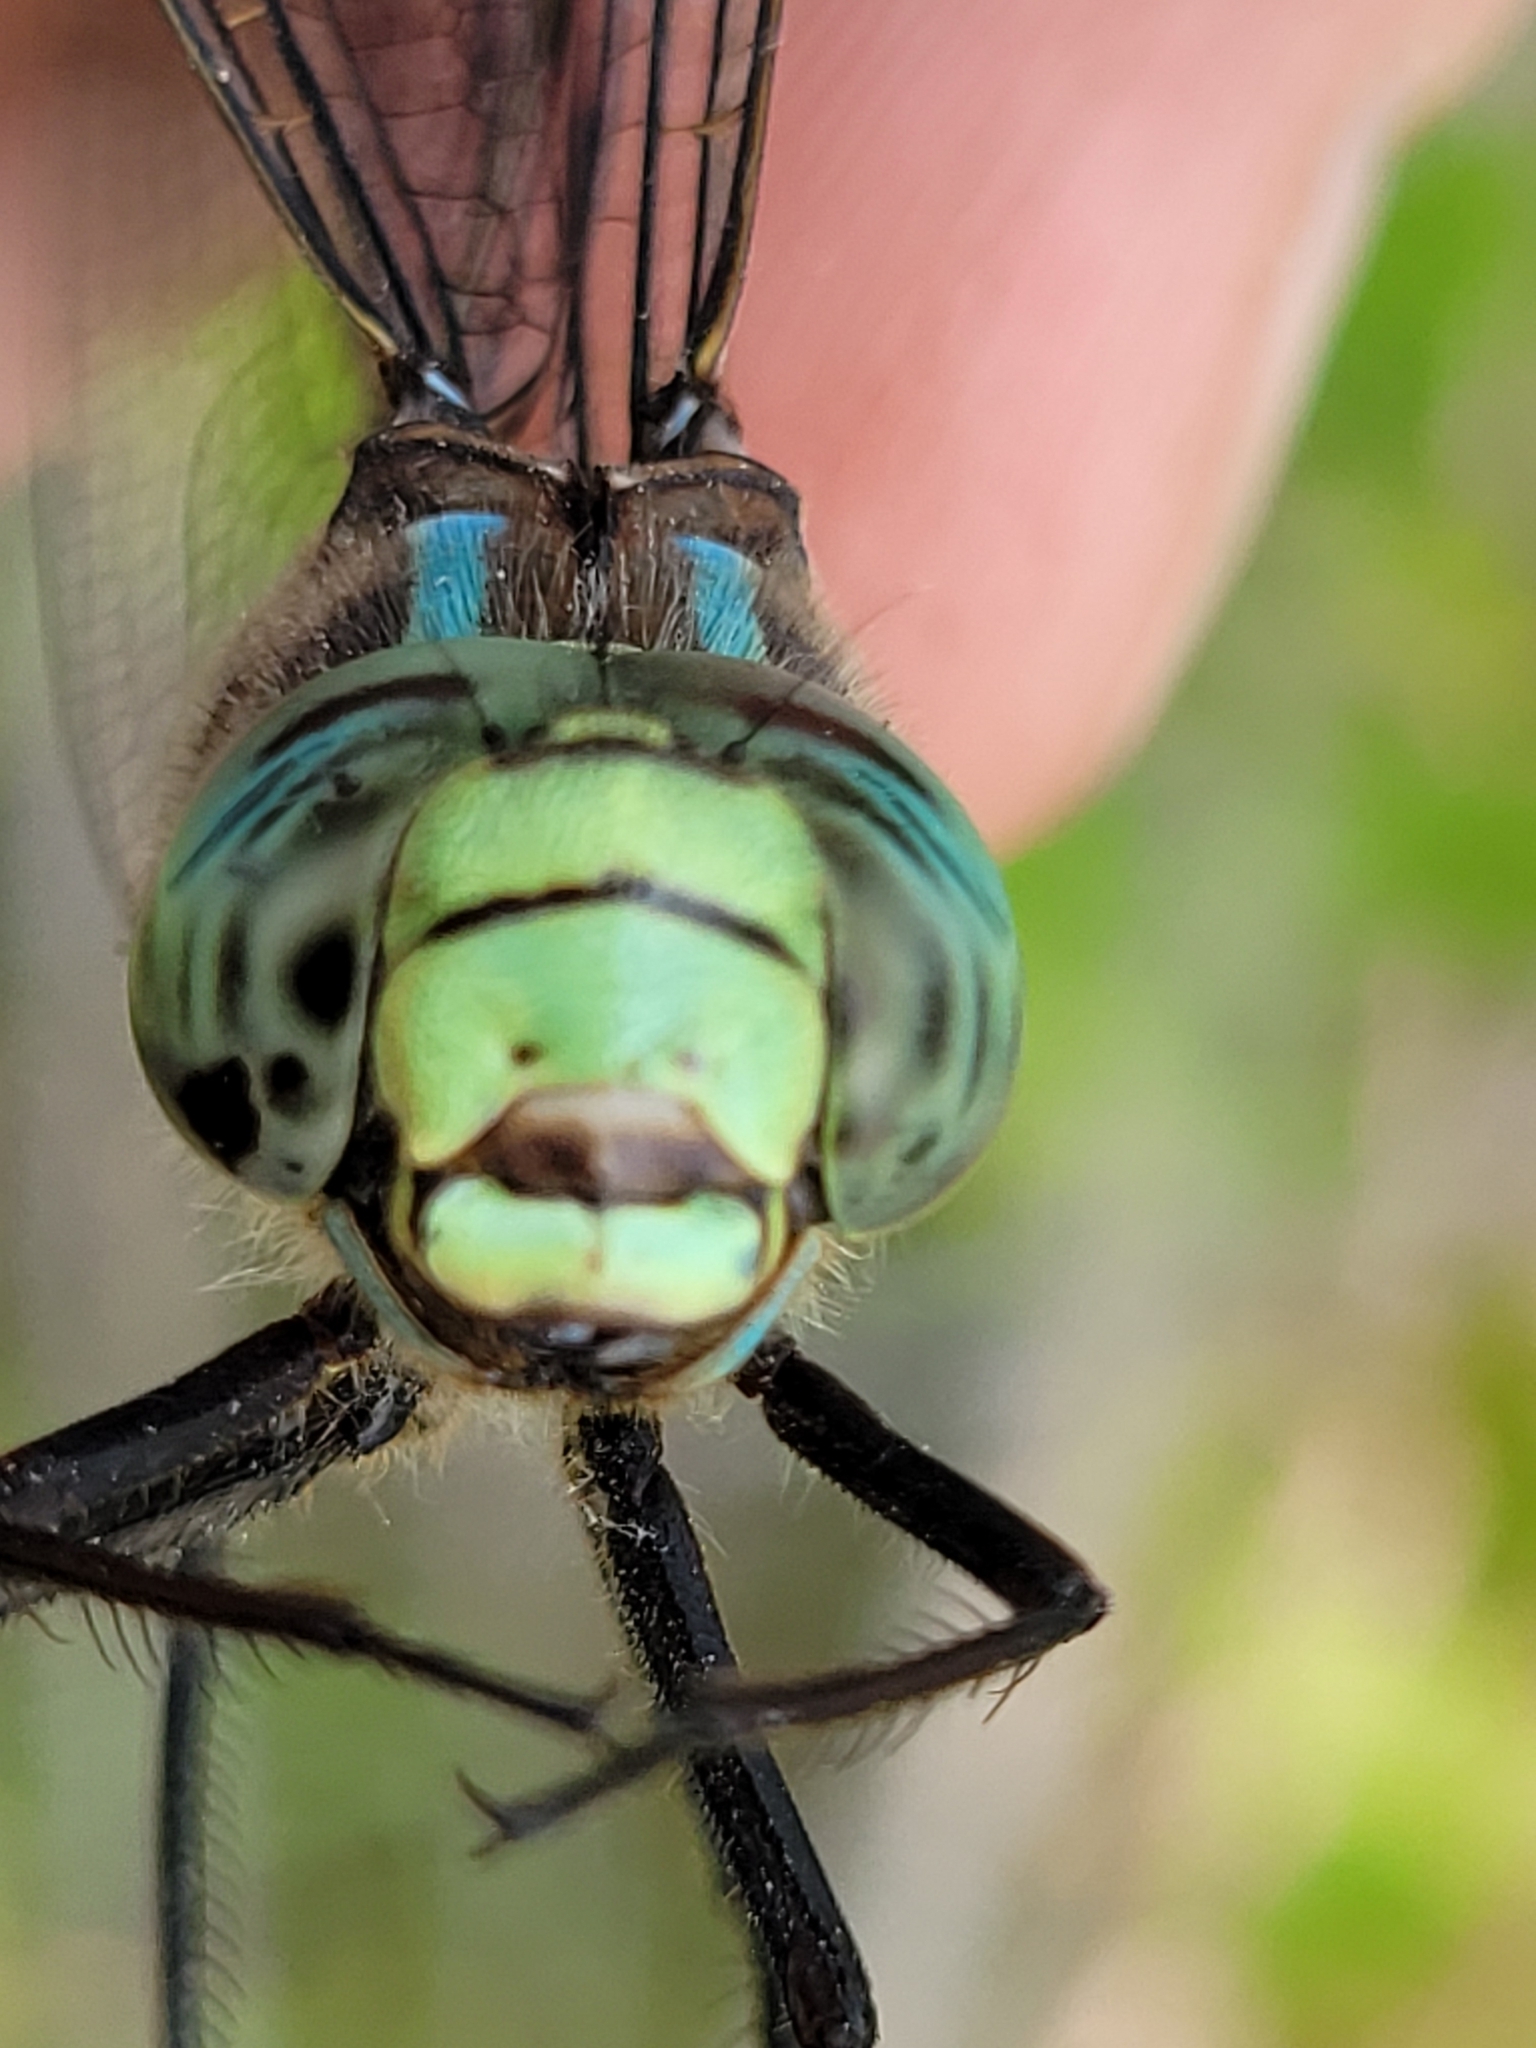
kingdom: Animalia
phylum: Arthropoda
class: Insecta
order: Odonata
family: Aeshnidae
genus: Aeshna
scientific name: Aeshna eremita
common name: Lake darner
